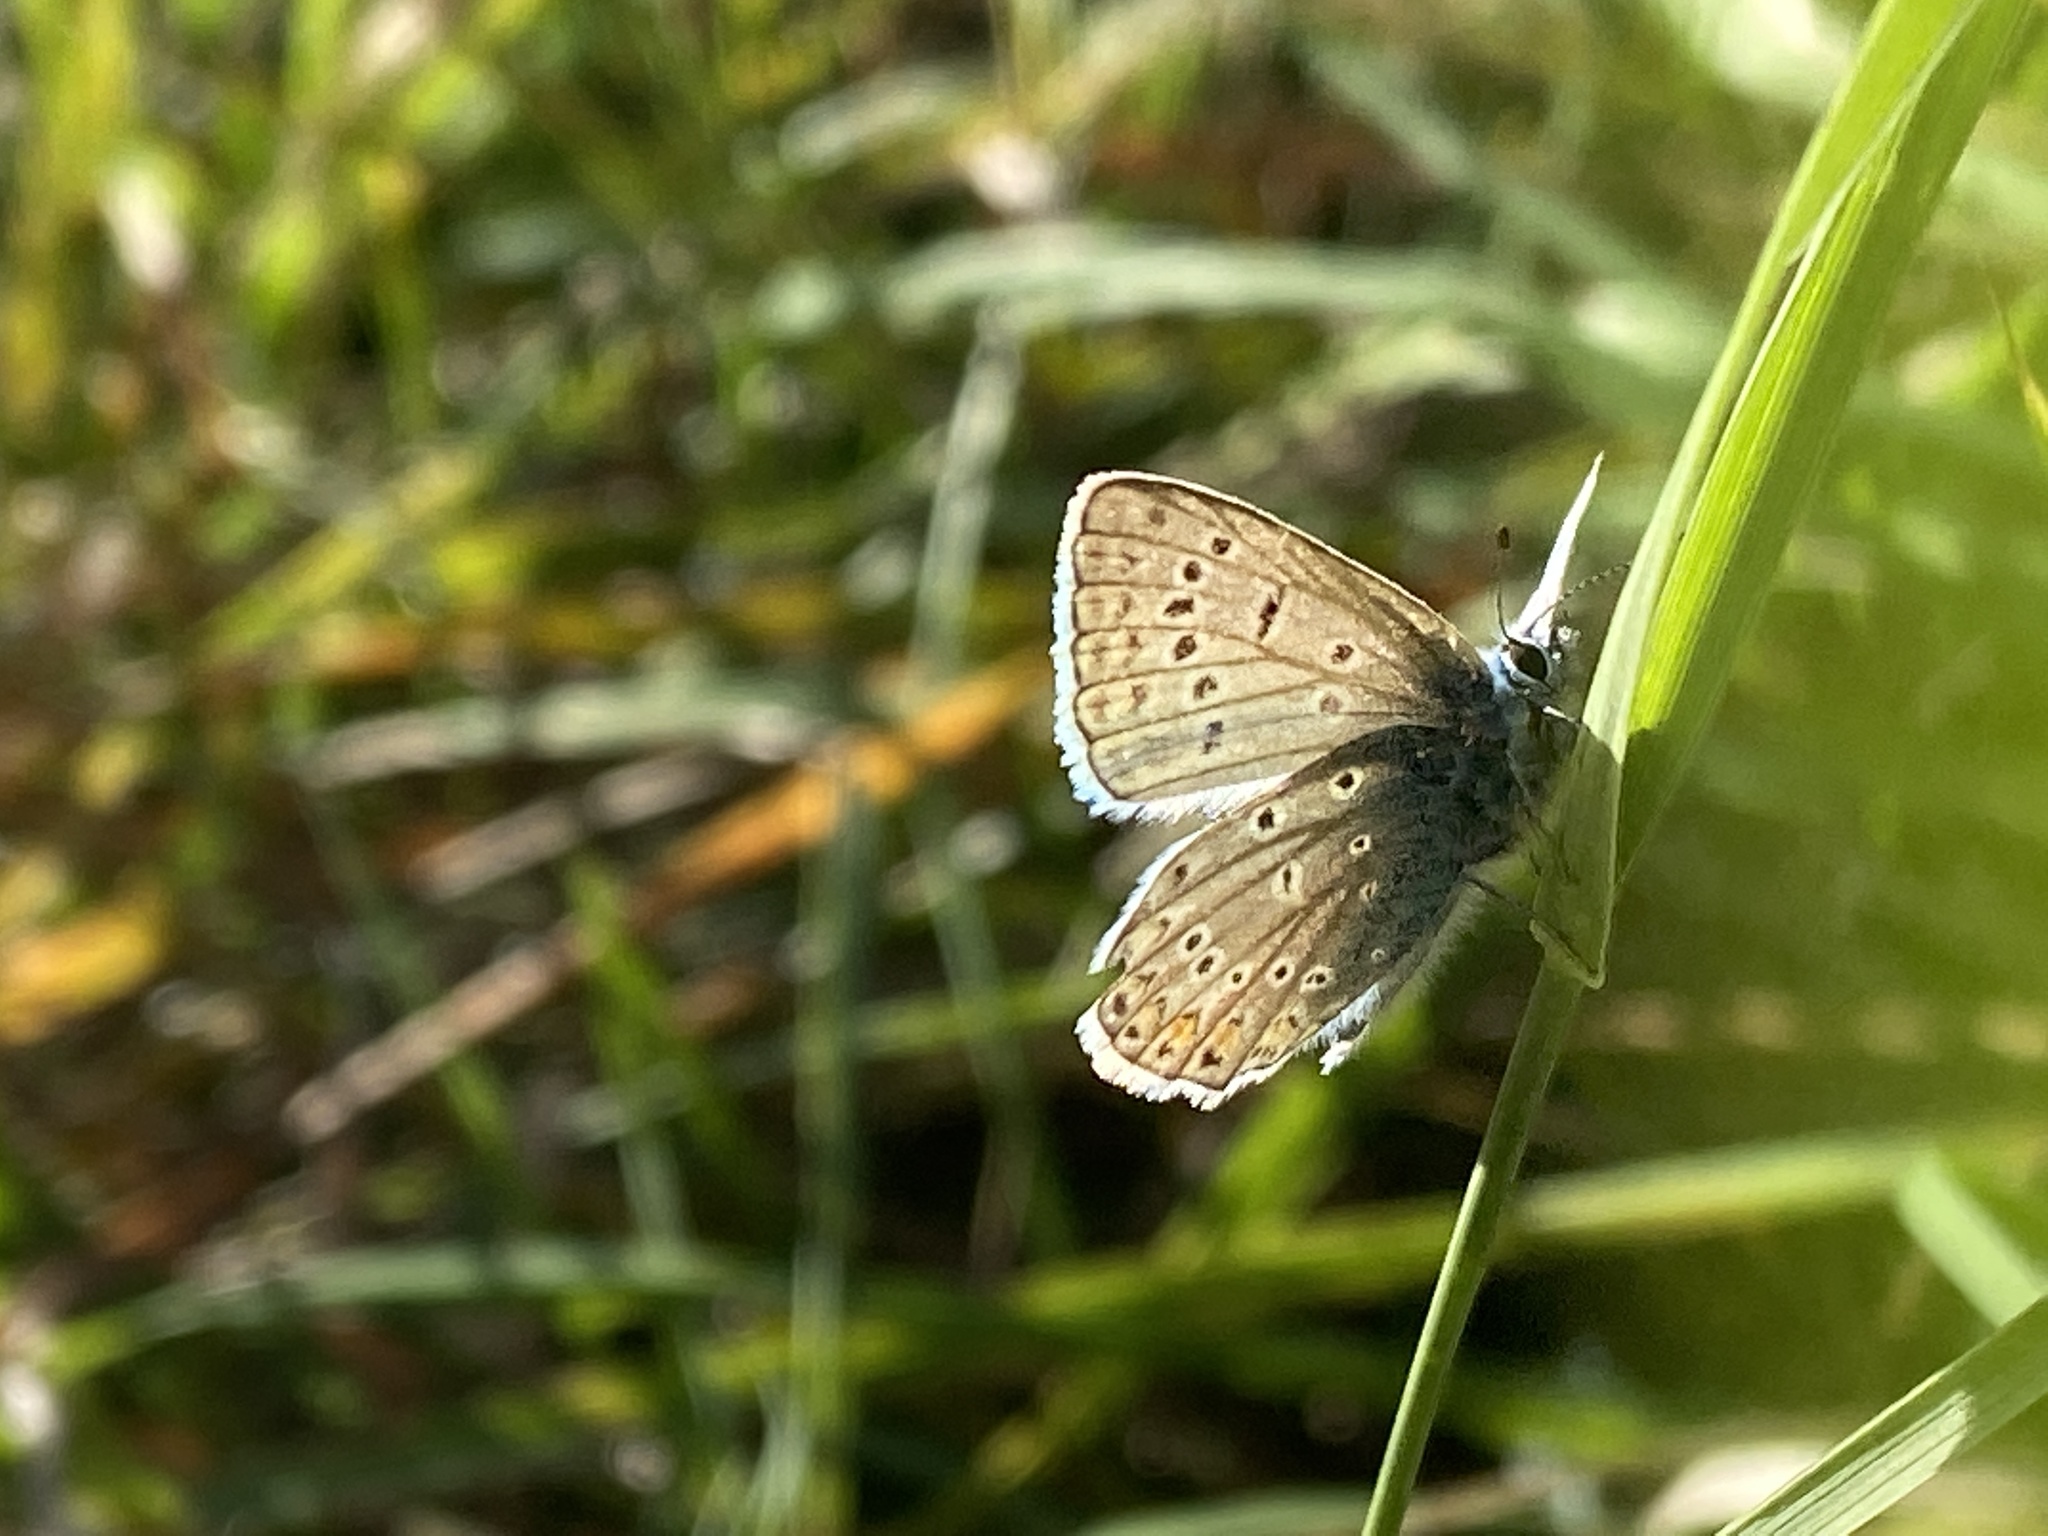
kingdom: Animalia
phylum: Arthropoda
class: Insecta
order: Lepidoptera
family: Lycaenidae
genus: Polyommatus
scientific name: Polyommatus icarus
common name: Common blue
